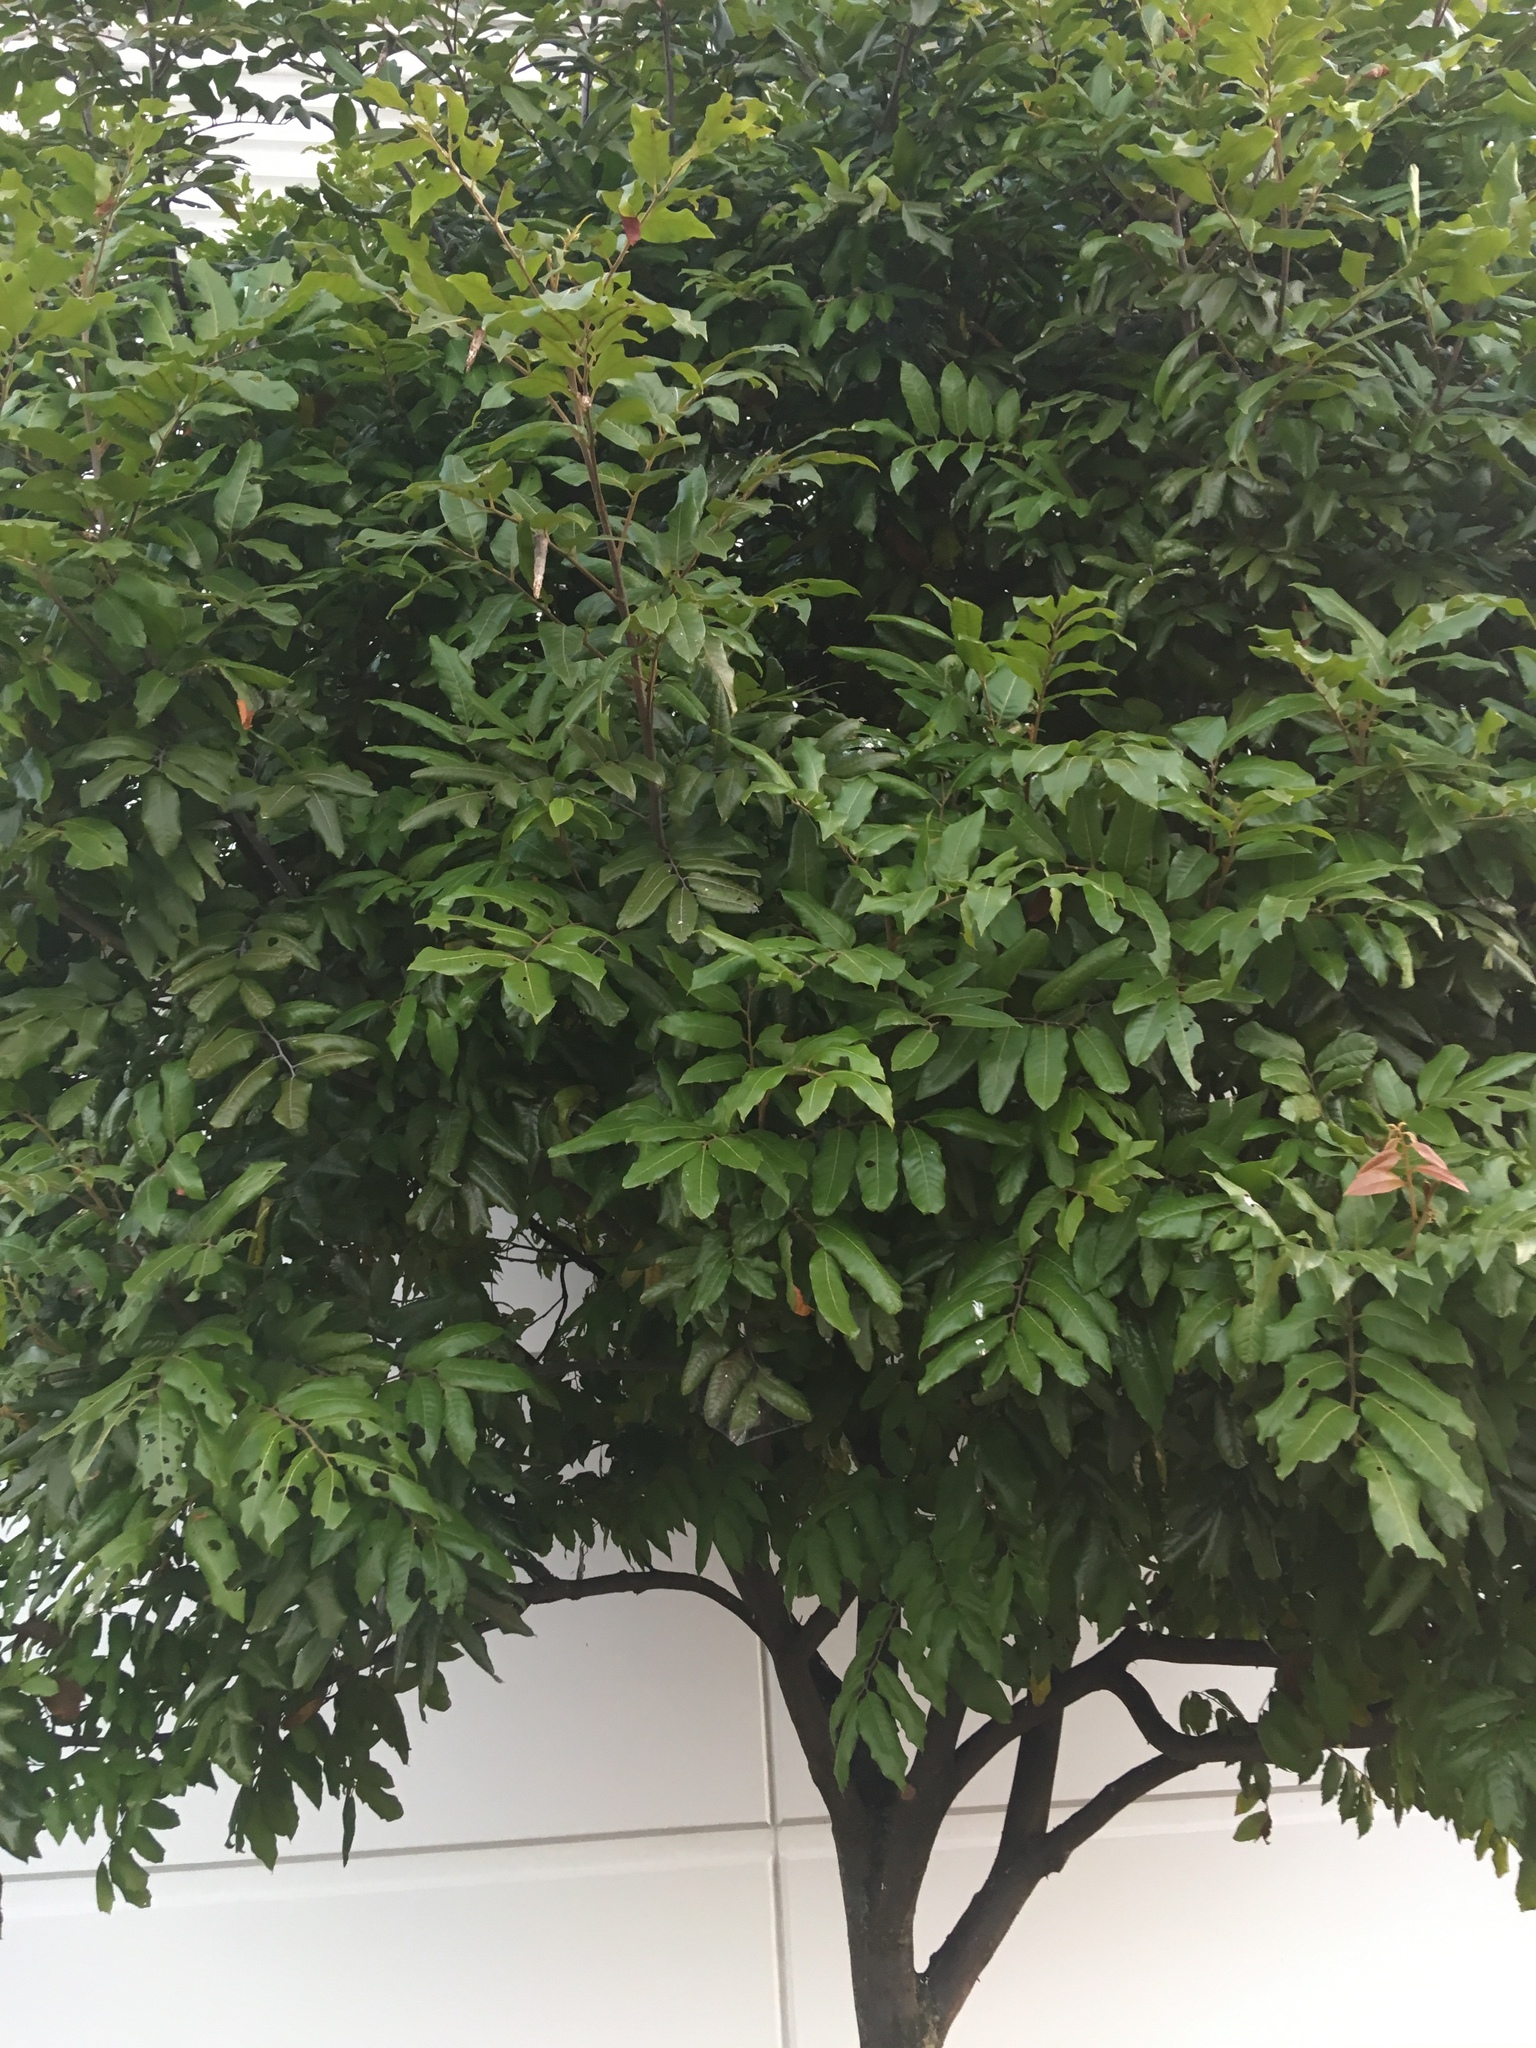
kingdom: Plantae
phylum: Tracheophyta
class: Magnoliopsida
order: Sapindales
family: Sapindaceae
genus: Alectryon
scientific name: Alectryon excelsus
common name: Three kings titoki
